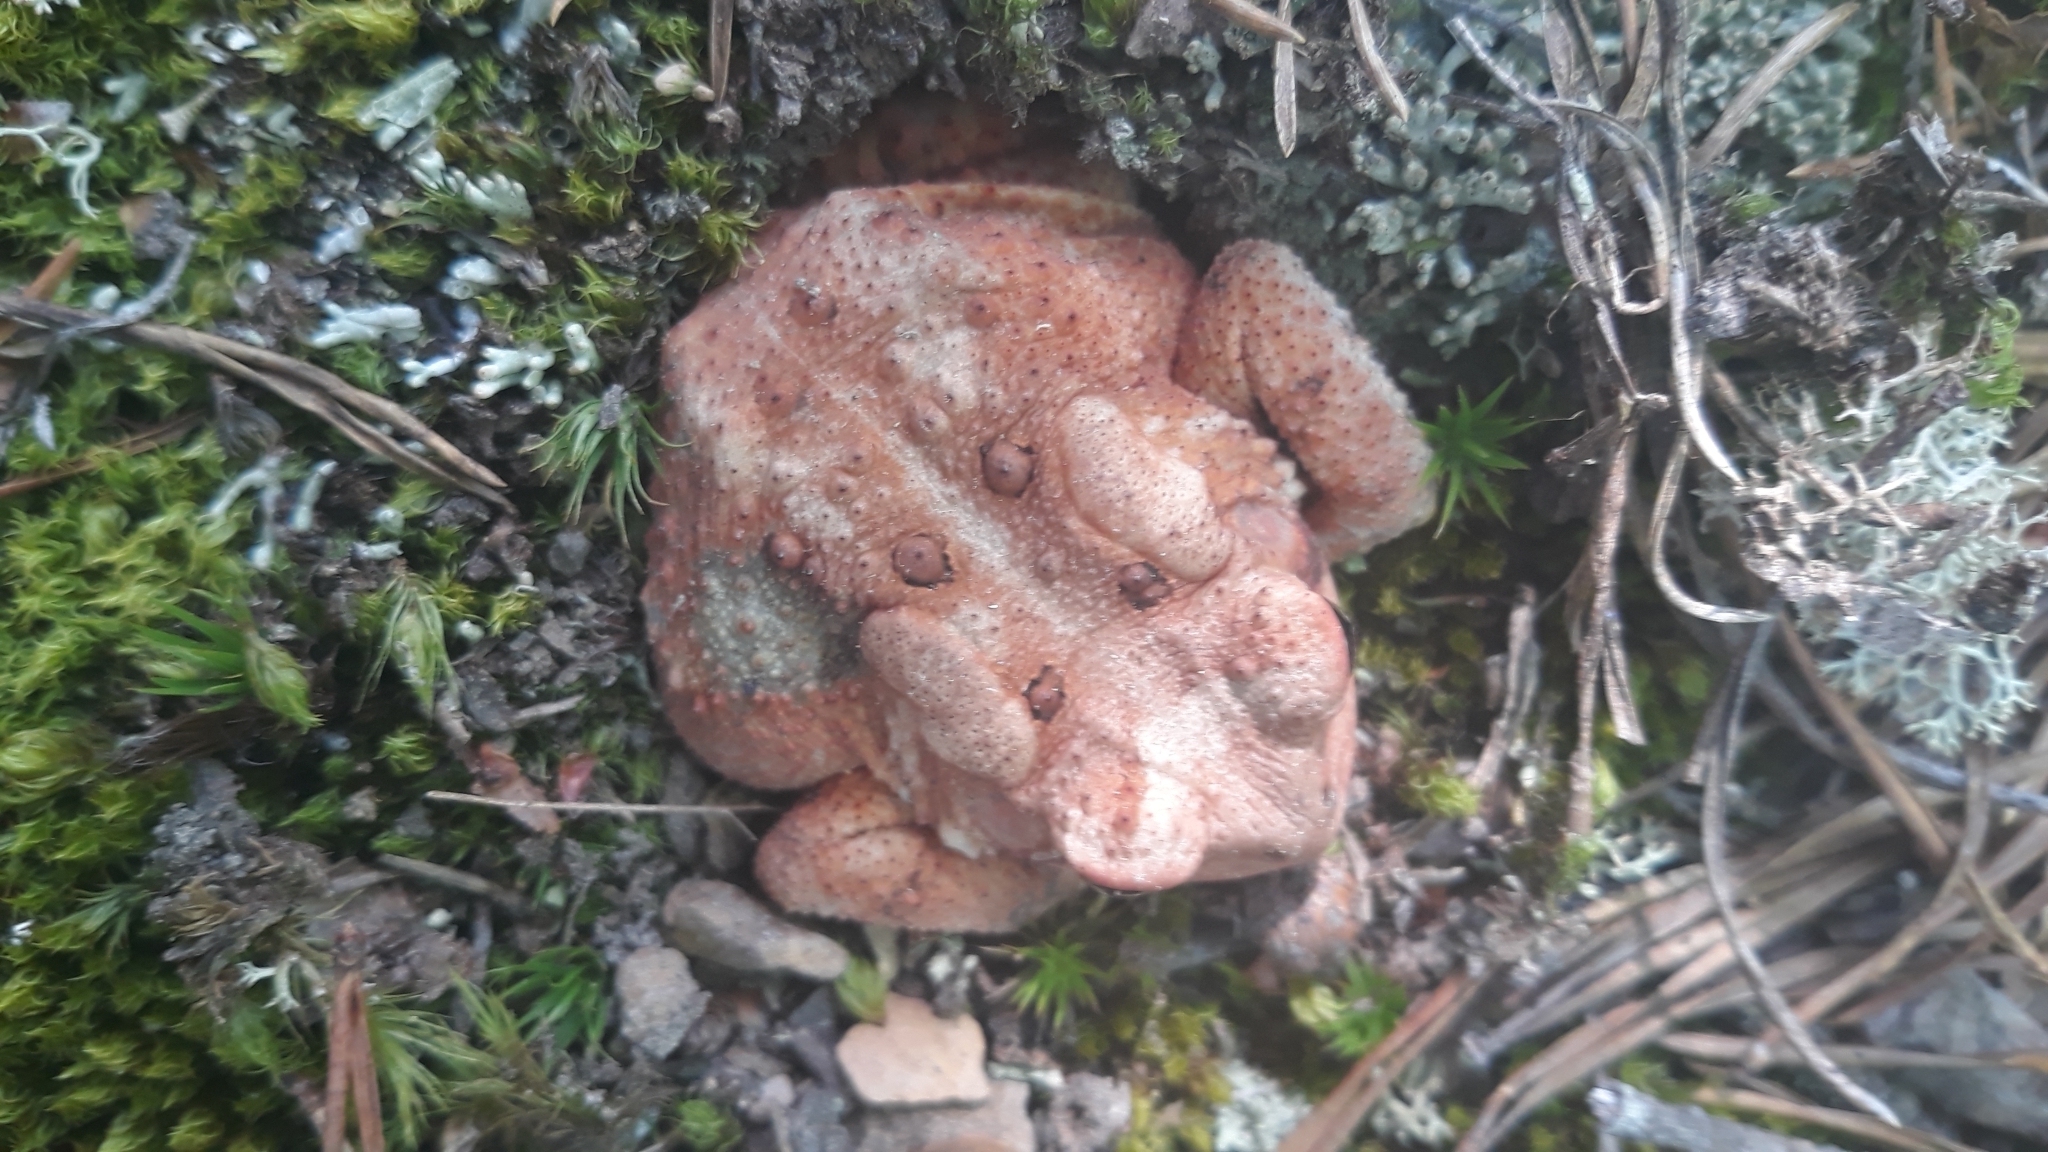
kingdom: Animalia
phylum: Chordata
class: Amphibia
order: Anura
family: Bufonidae
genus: Anaxyrus
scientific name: Anaxyrus americanus
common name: American toad
